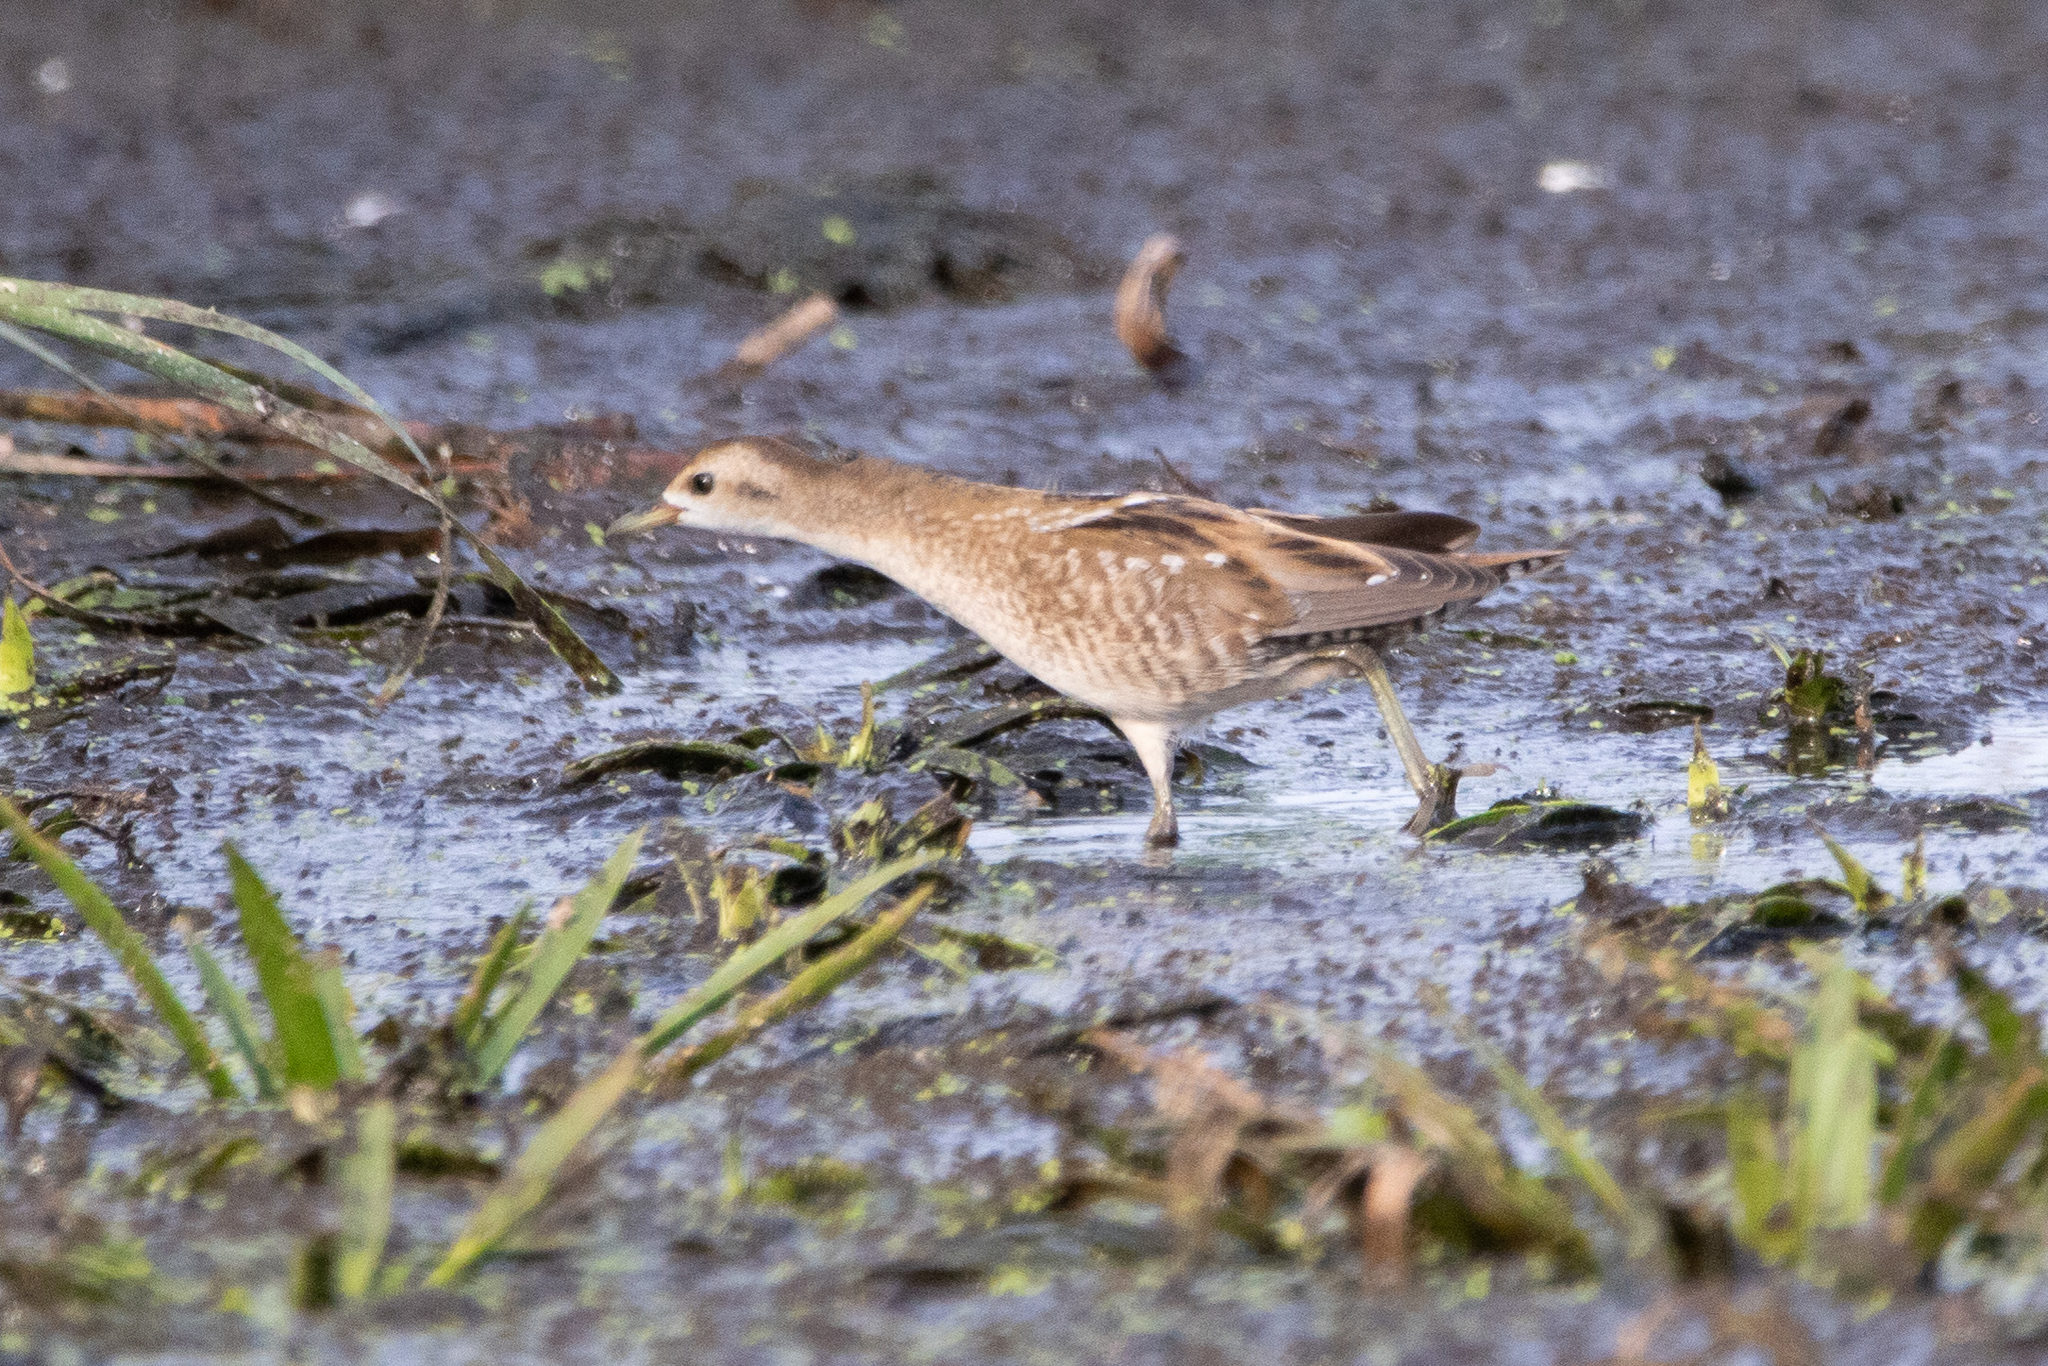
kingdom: Animalia
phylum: Chordata
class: Aves
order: Gruiformes
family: Rallidae
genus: Porzana
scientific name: Porzana parva
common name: Little crake
